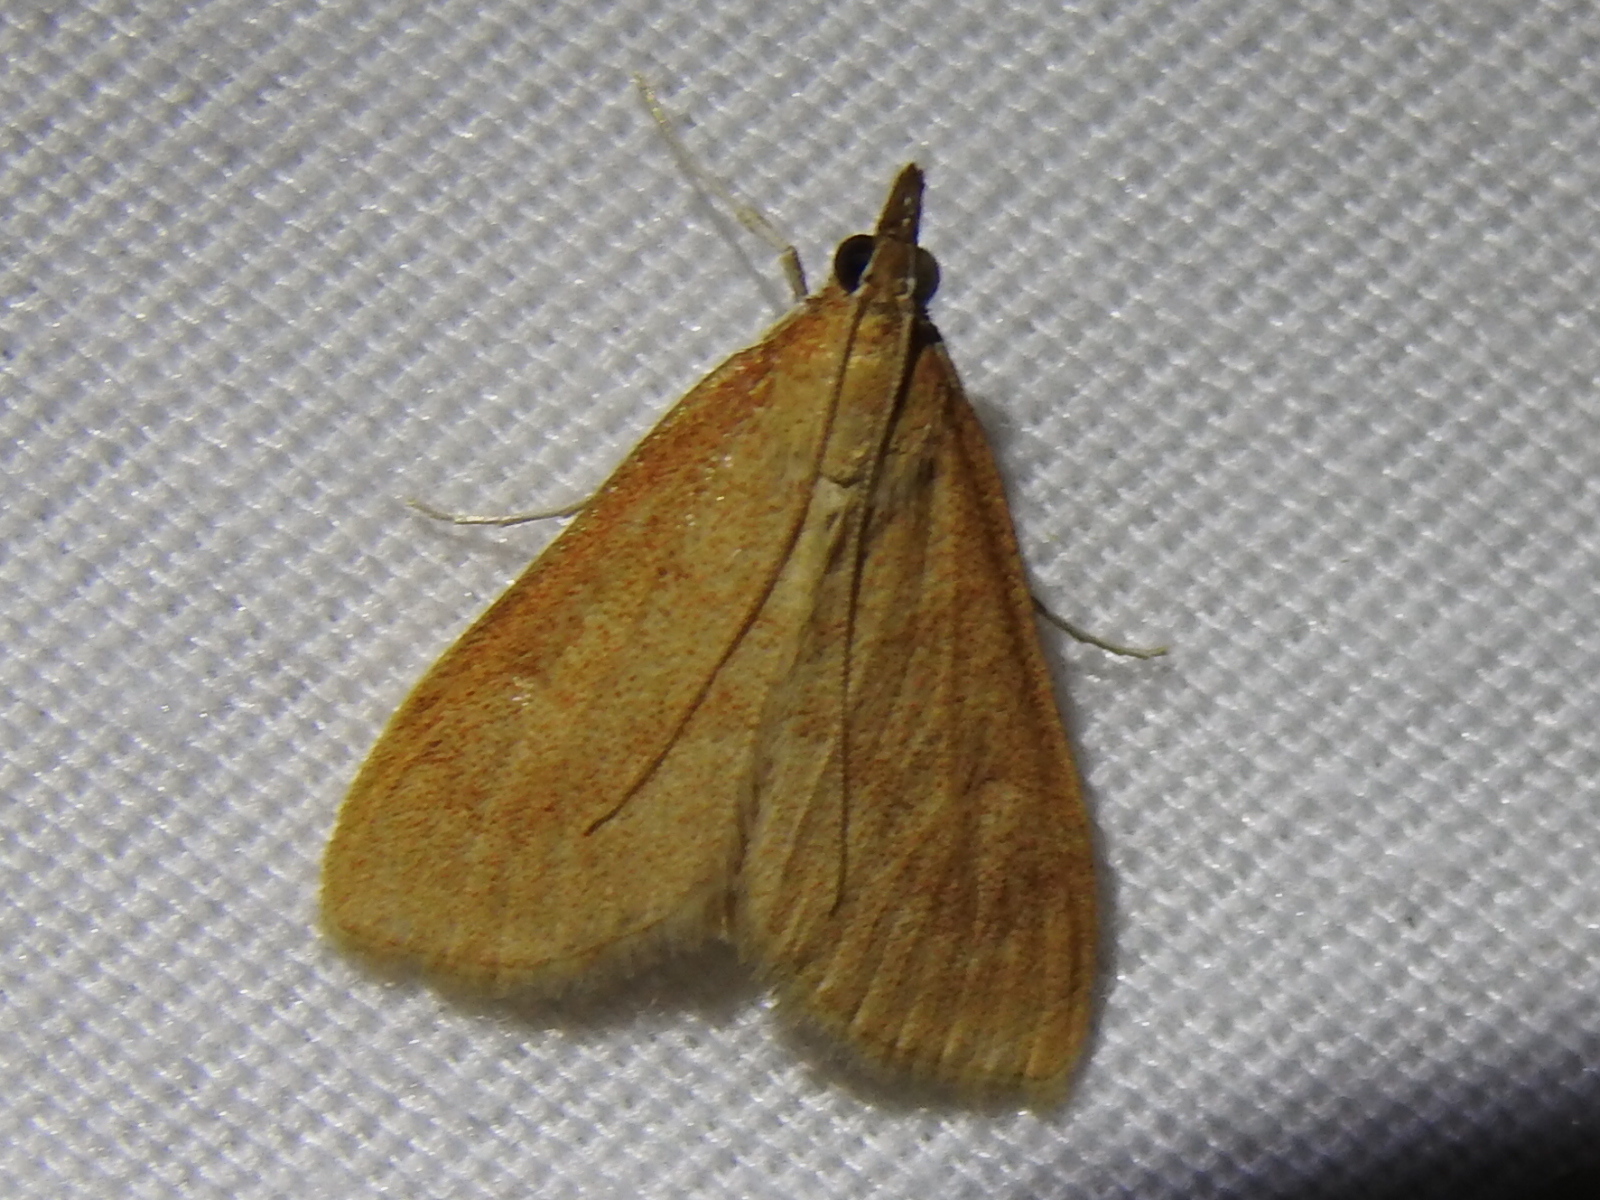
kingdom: Animalia
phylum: Arthropoda
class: Insecta
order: Lepidoptera
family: Crambidae
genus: Achyra
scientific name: Achyra rantalis
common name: Garden webworm
